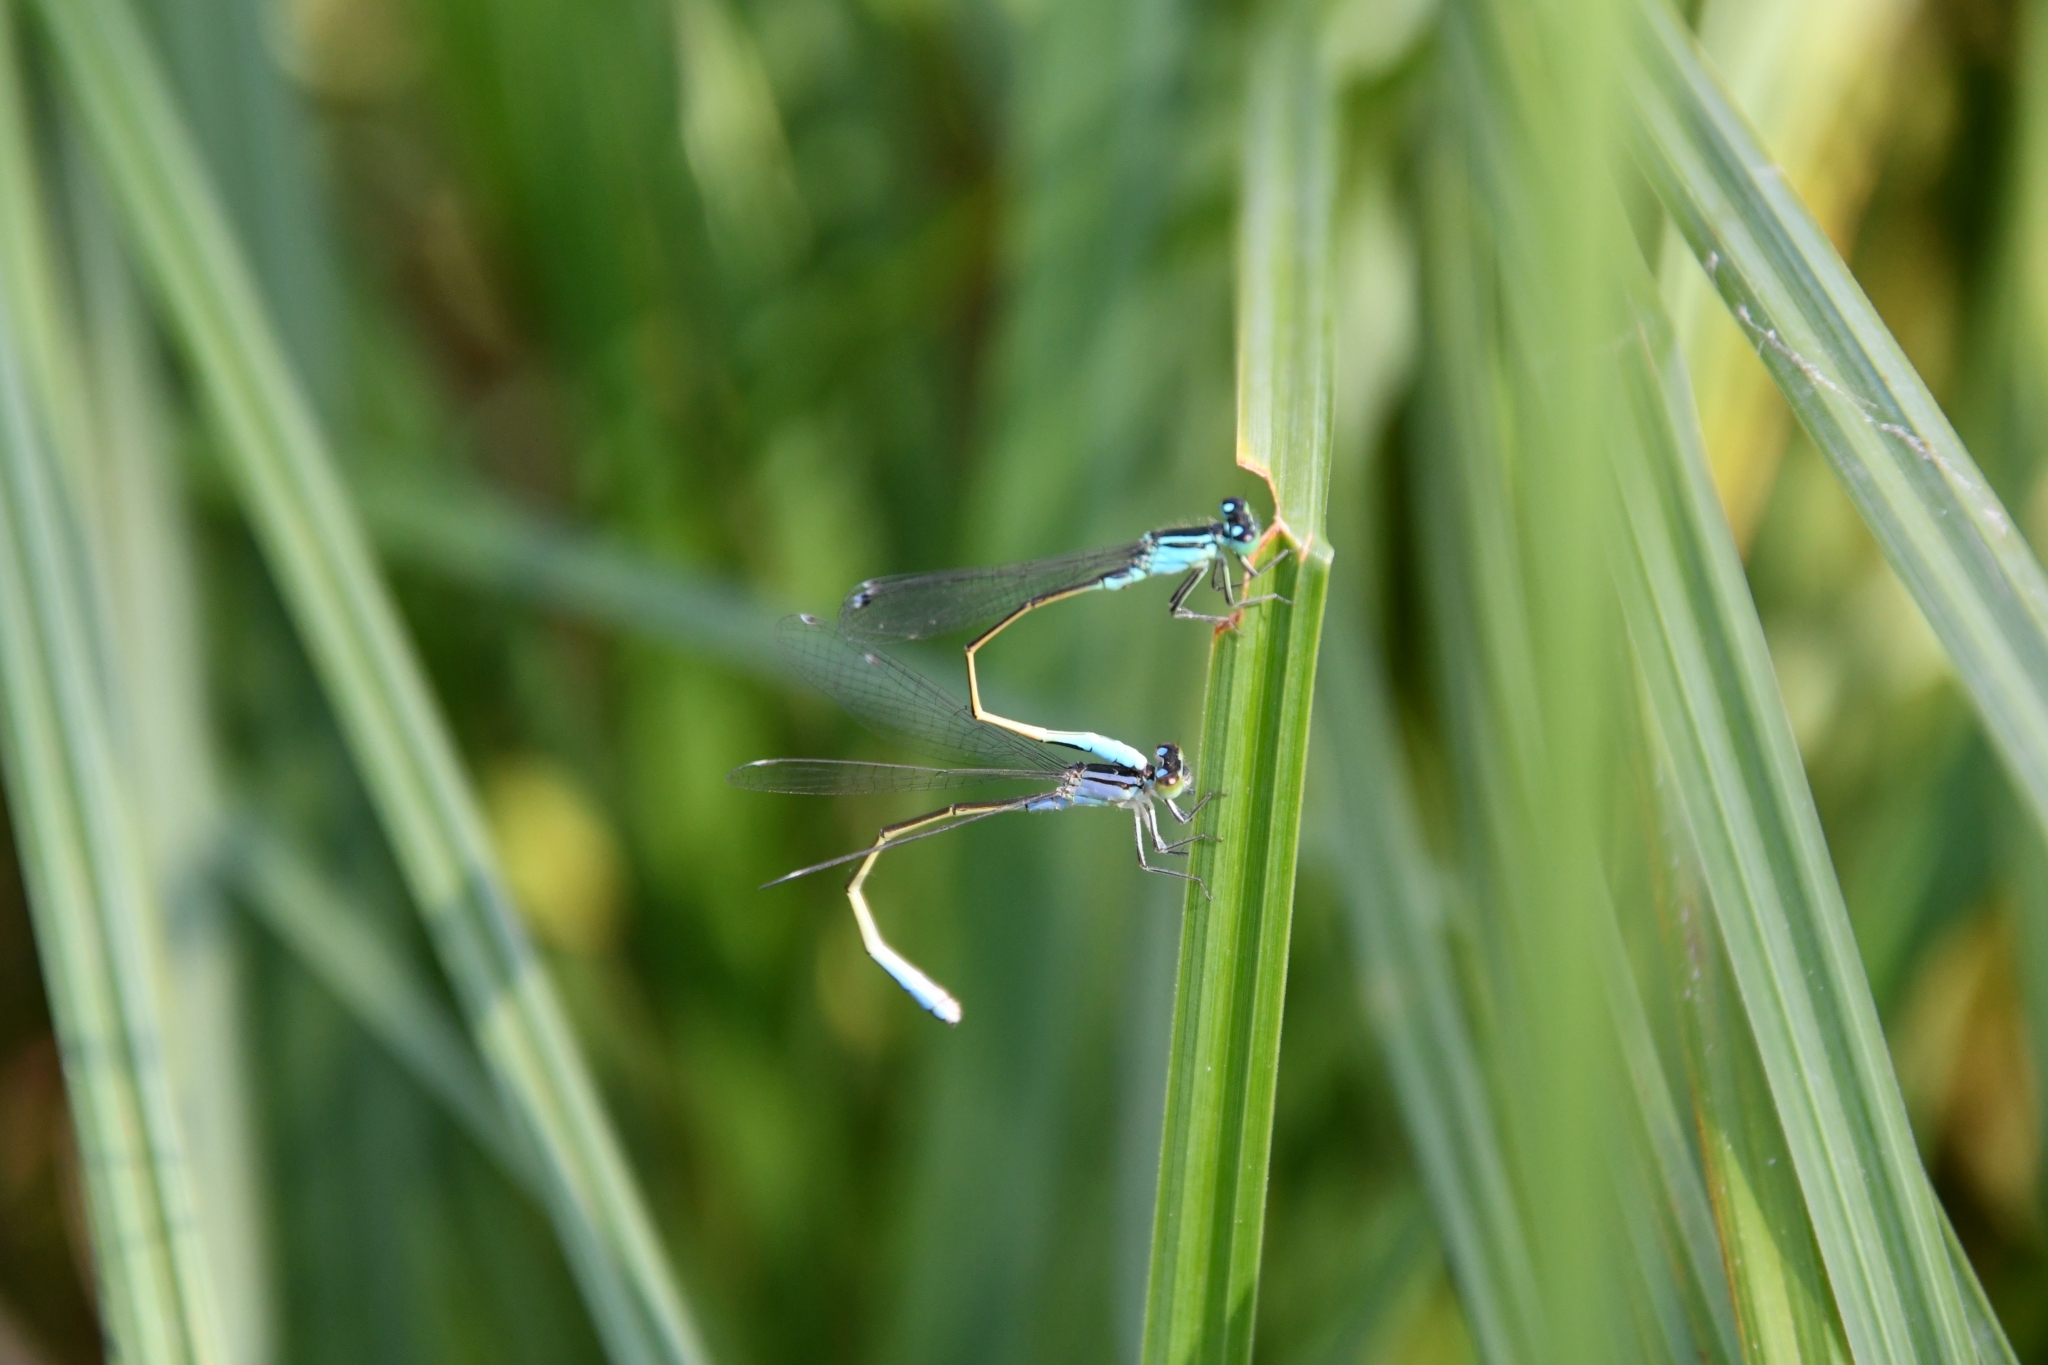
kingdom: Animalia
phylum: Arthropoda
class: Insecta
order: Odonata
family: Coenagrionidae
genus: Ischnura
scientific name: Ischnura elegans
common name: Blue-tailed damselfly
